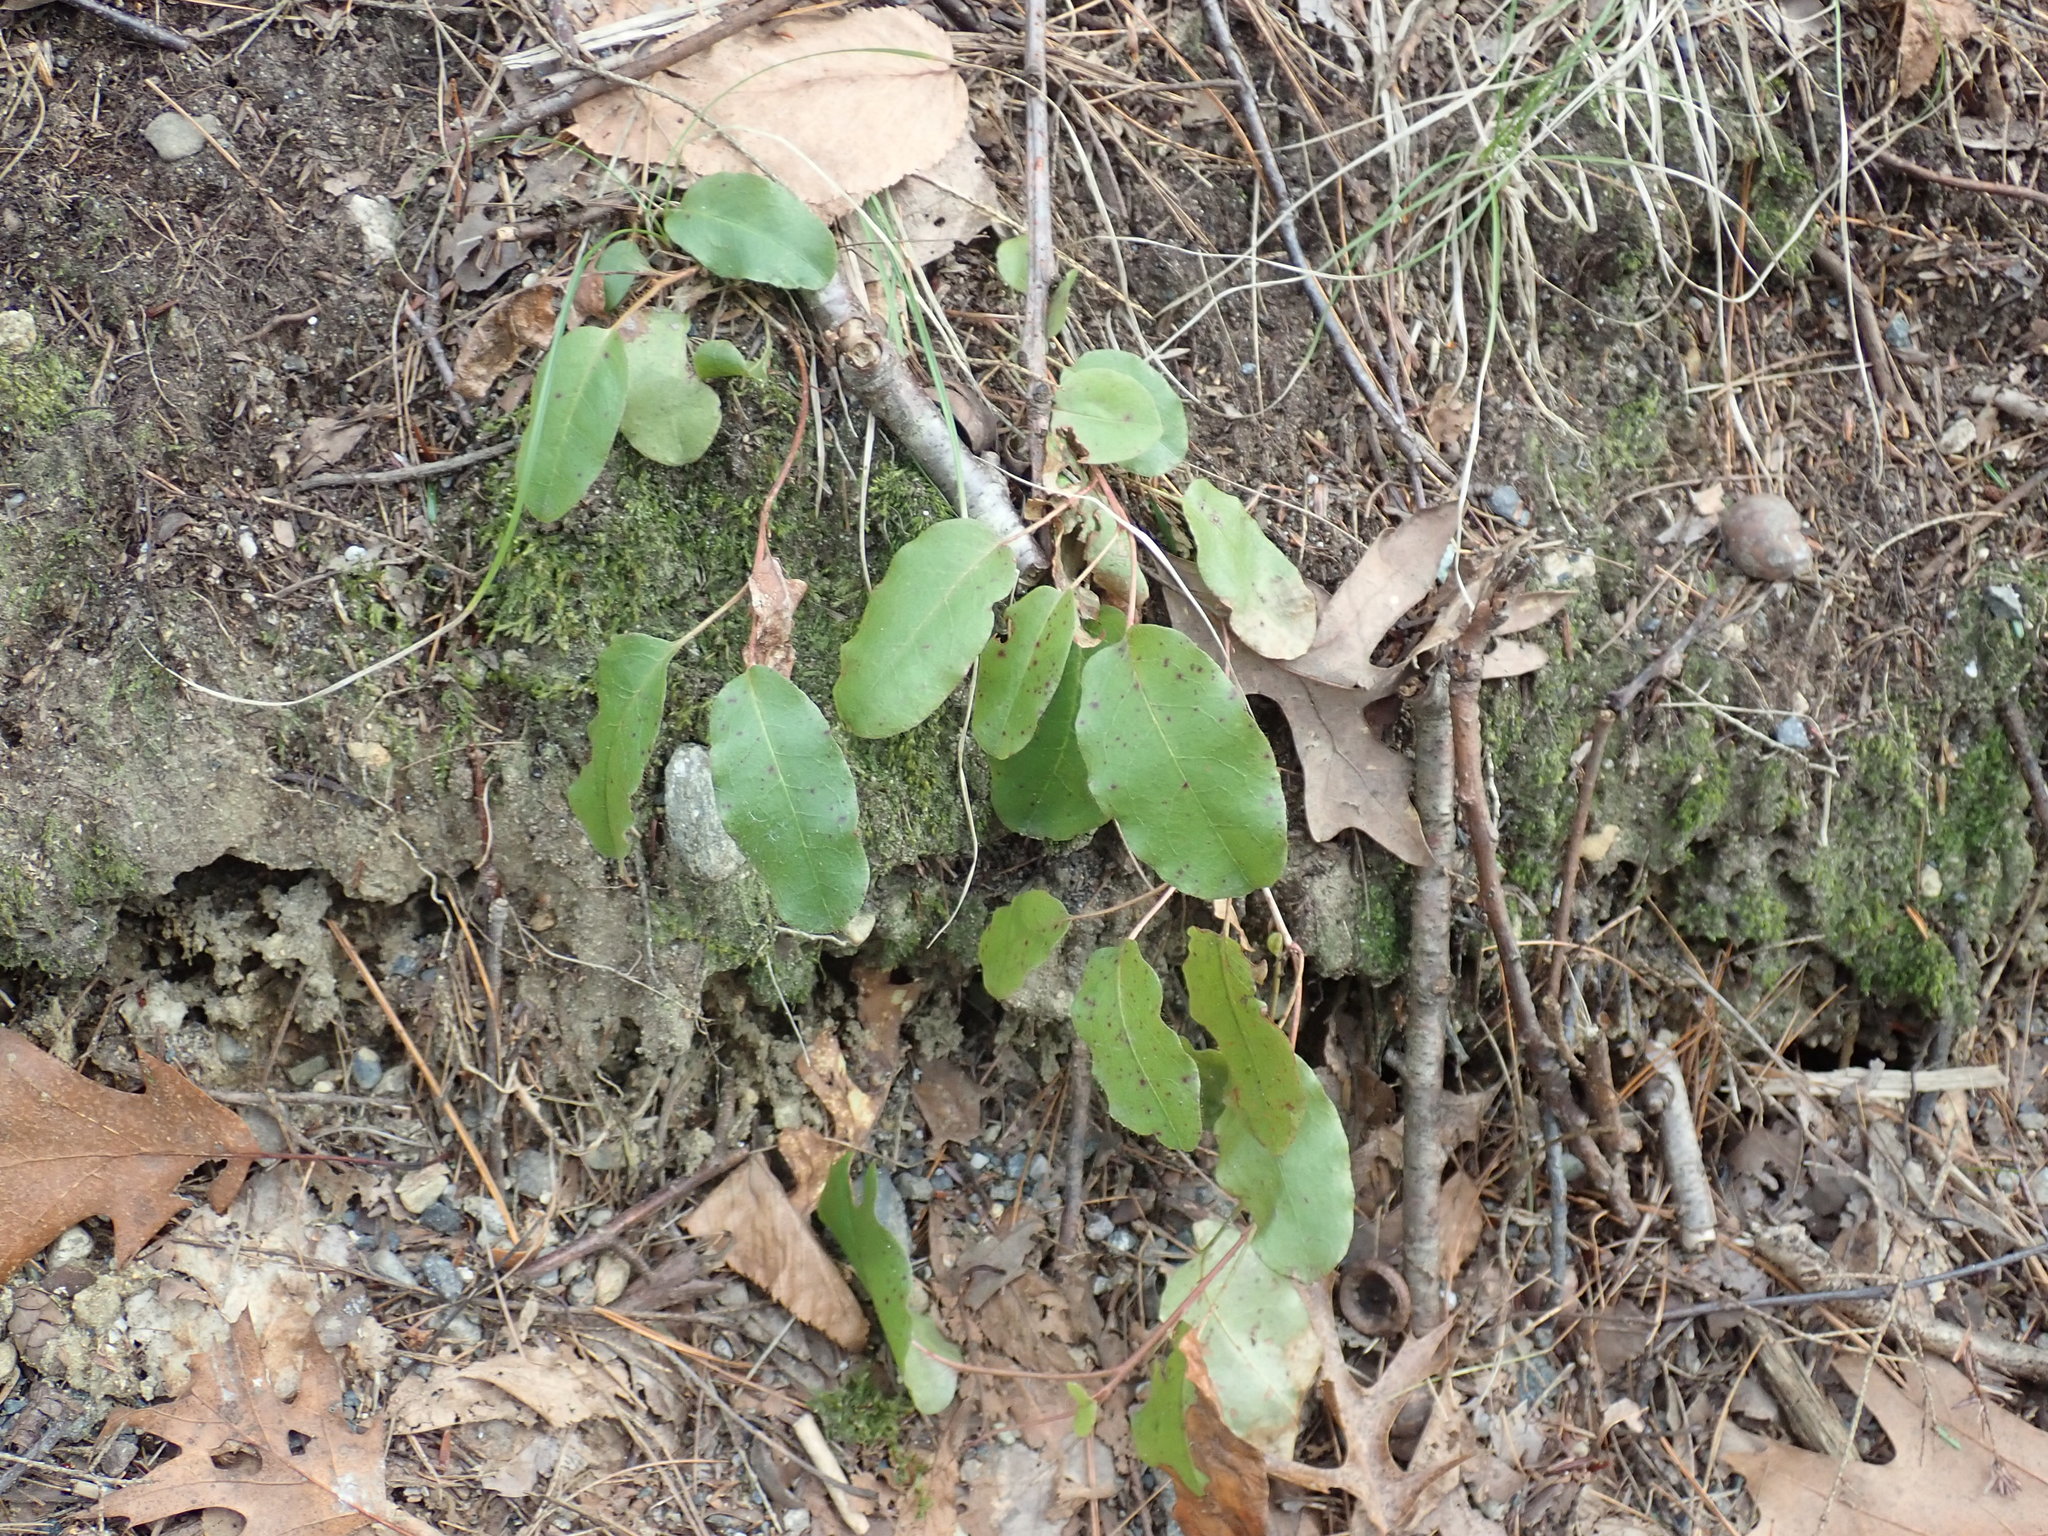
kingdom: Plantae
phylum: Tracheophyta
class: Magnoliopsida
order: Ericales
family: Ericaceae
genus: Epigaea
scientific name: Epigaea repens
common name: Gravelroot
